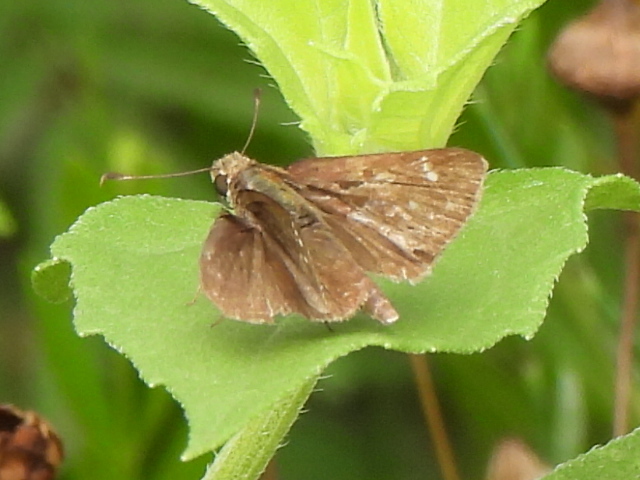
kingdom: Animalia
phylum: Arthropoda
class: Insecta
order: Lepidoptera
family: Hesperiidae
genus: Lerema
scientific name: Lerema accius
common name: Clouded skipper
